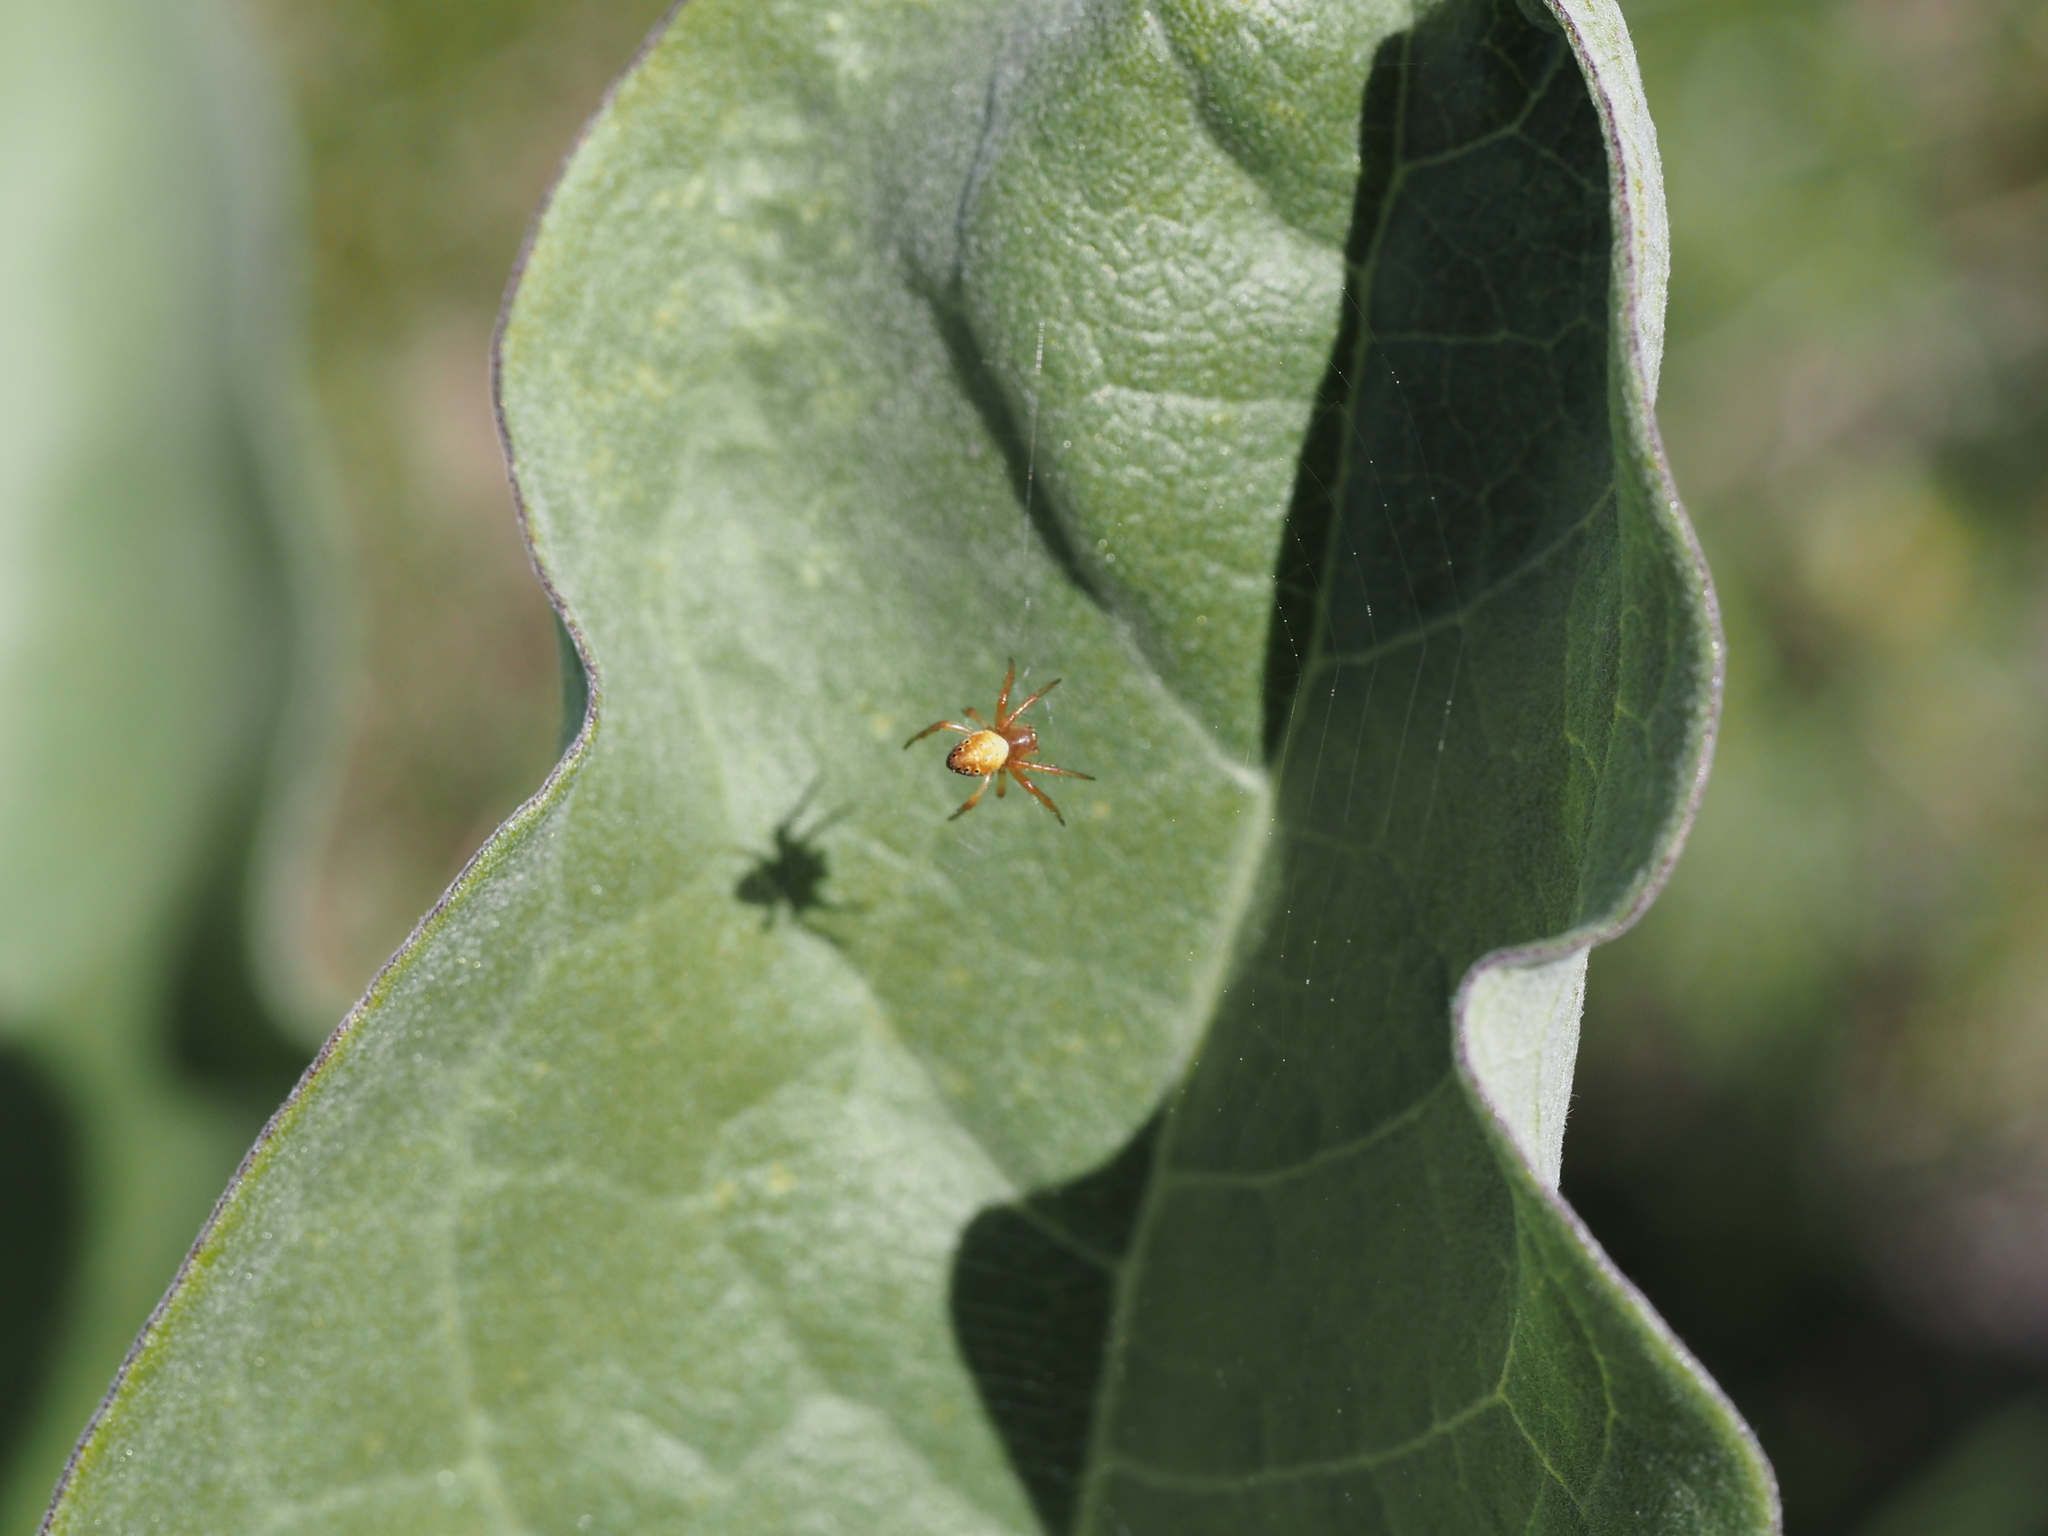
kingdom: Animalia
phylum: Arthropoda
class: Arachnida
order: Araneae
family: Araneidae
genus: Araniella
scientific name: Araniella displicata
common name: Sixspotted orb weaver
